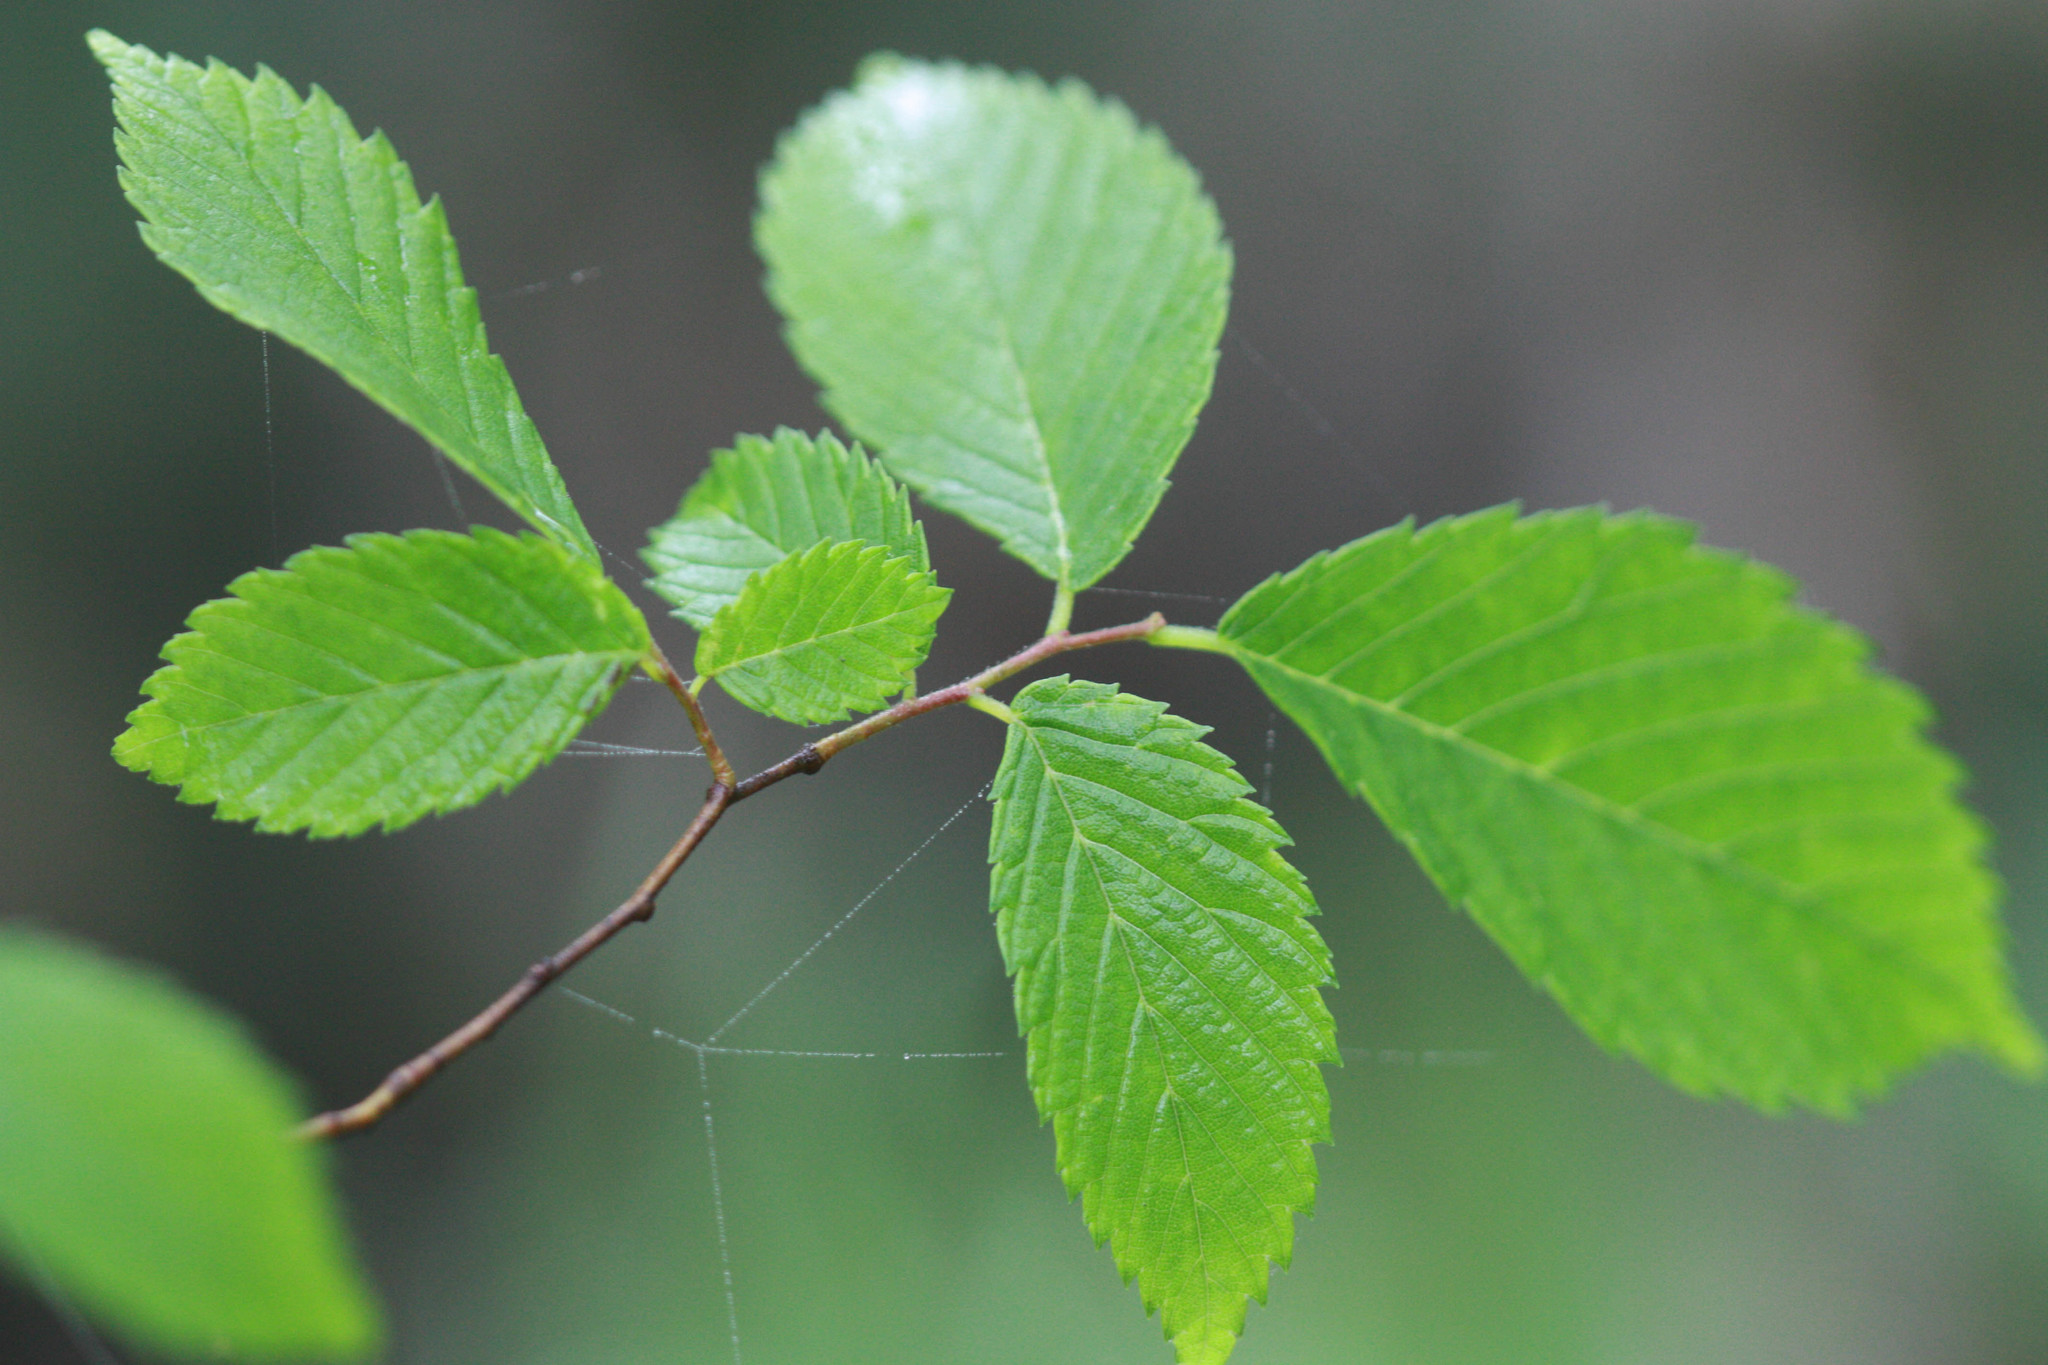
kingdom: Plantae
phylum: Tracheophyta
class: Magnoliopsida
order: Rosales
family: Ulmaceae
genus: Ulmus
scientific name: Ulmus americana
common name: American elm
